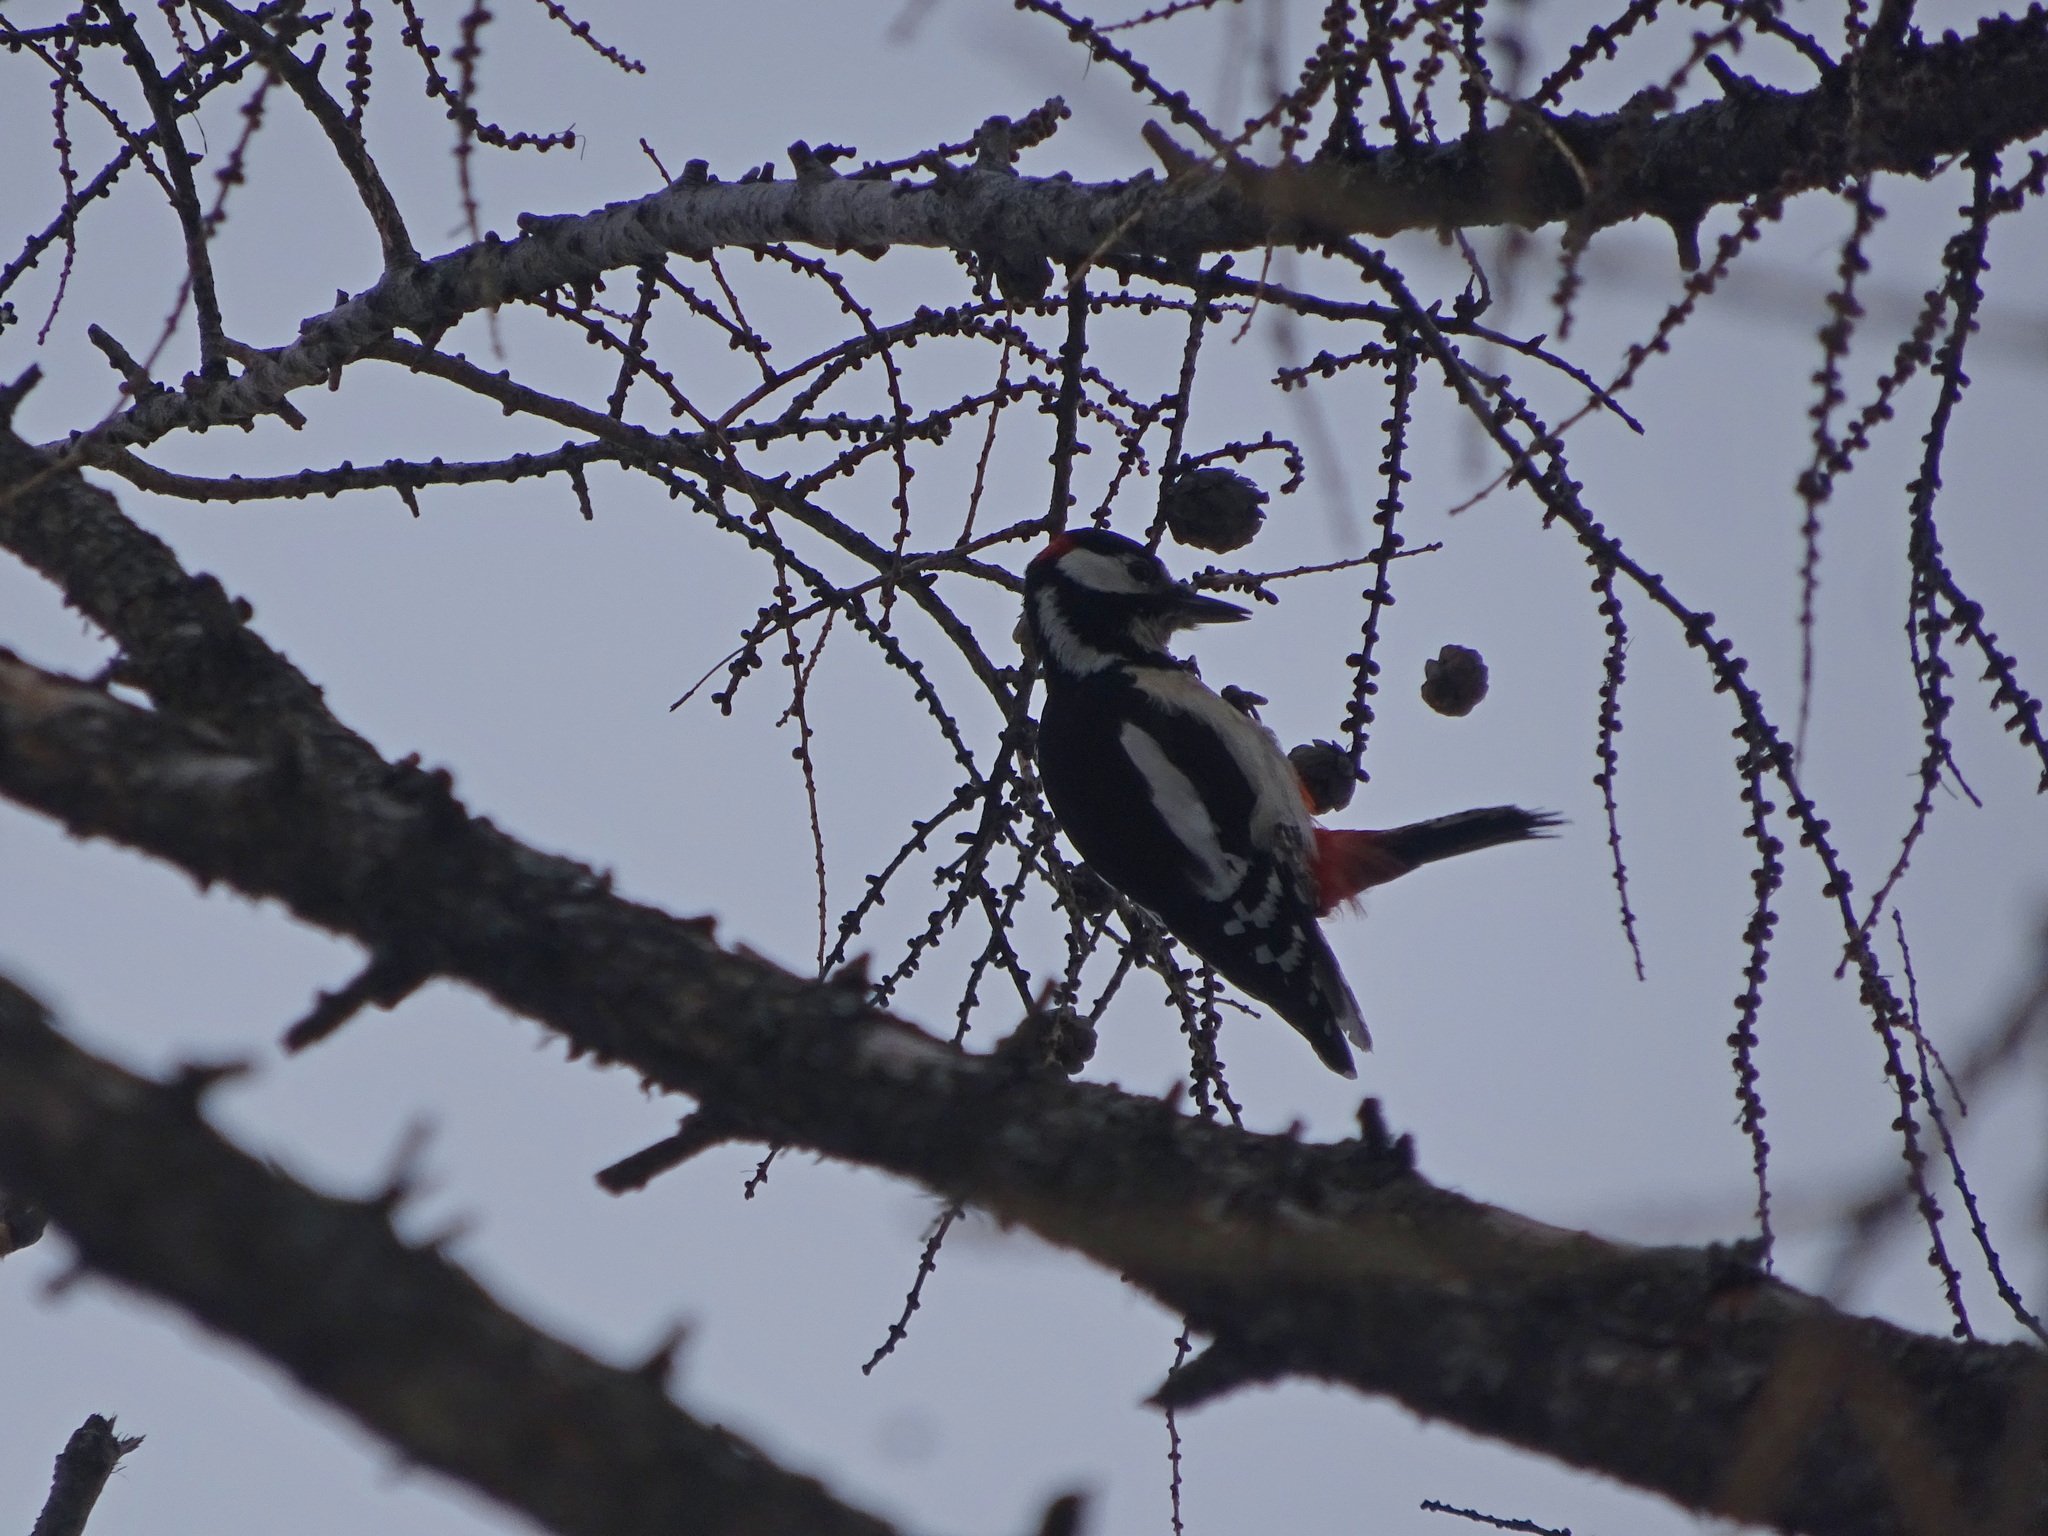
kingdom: Animalia
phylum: Chordata
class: Aves
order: Piciformes
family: Picidae
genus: Dendrocopos
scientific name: Dendrocopos major
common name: Great spotted woodpecker
